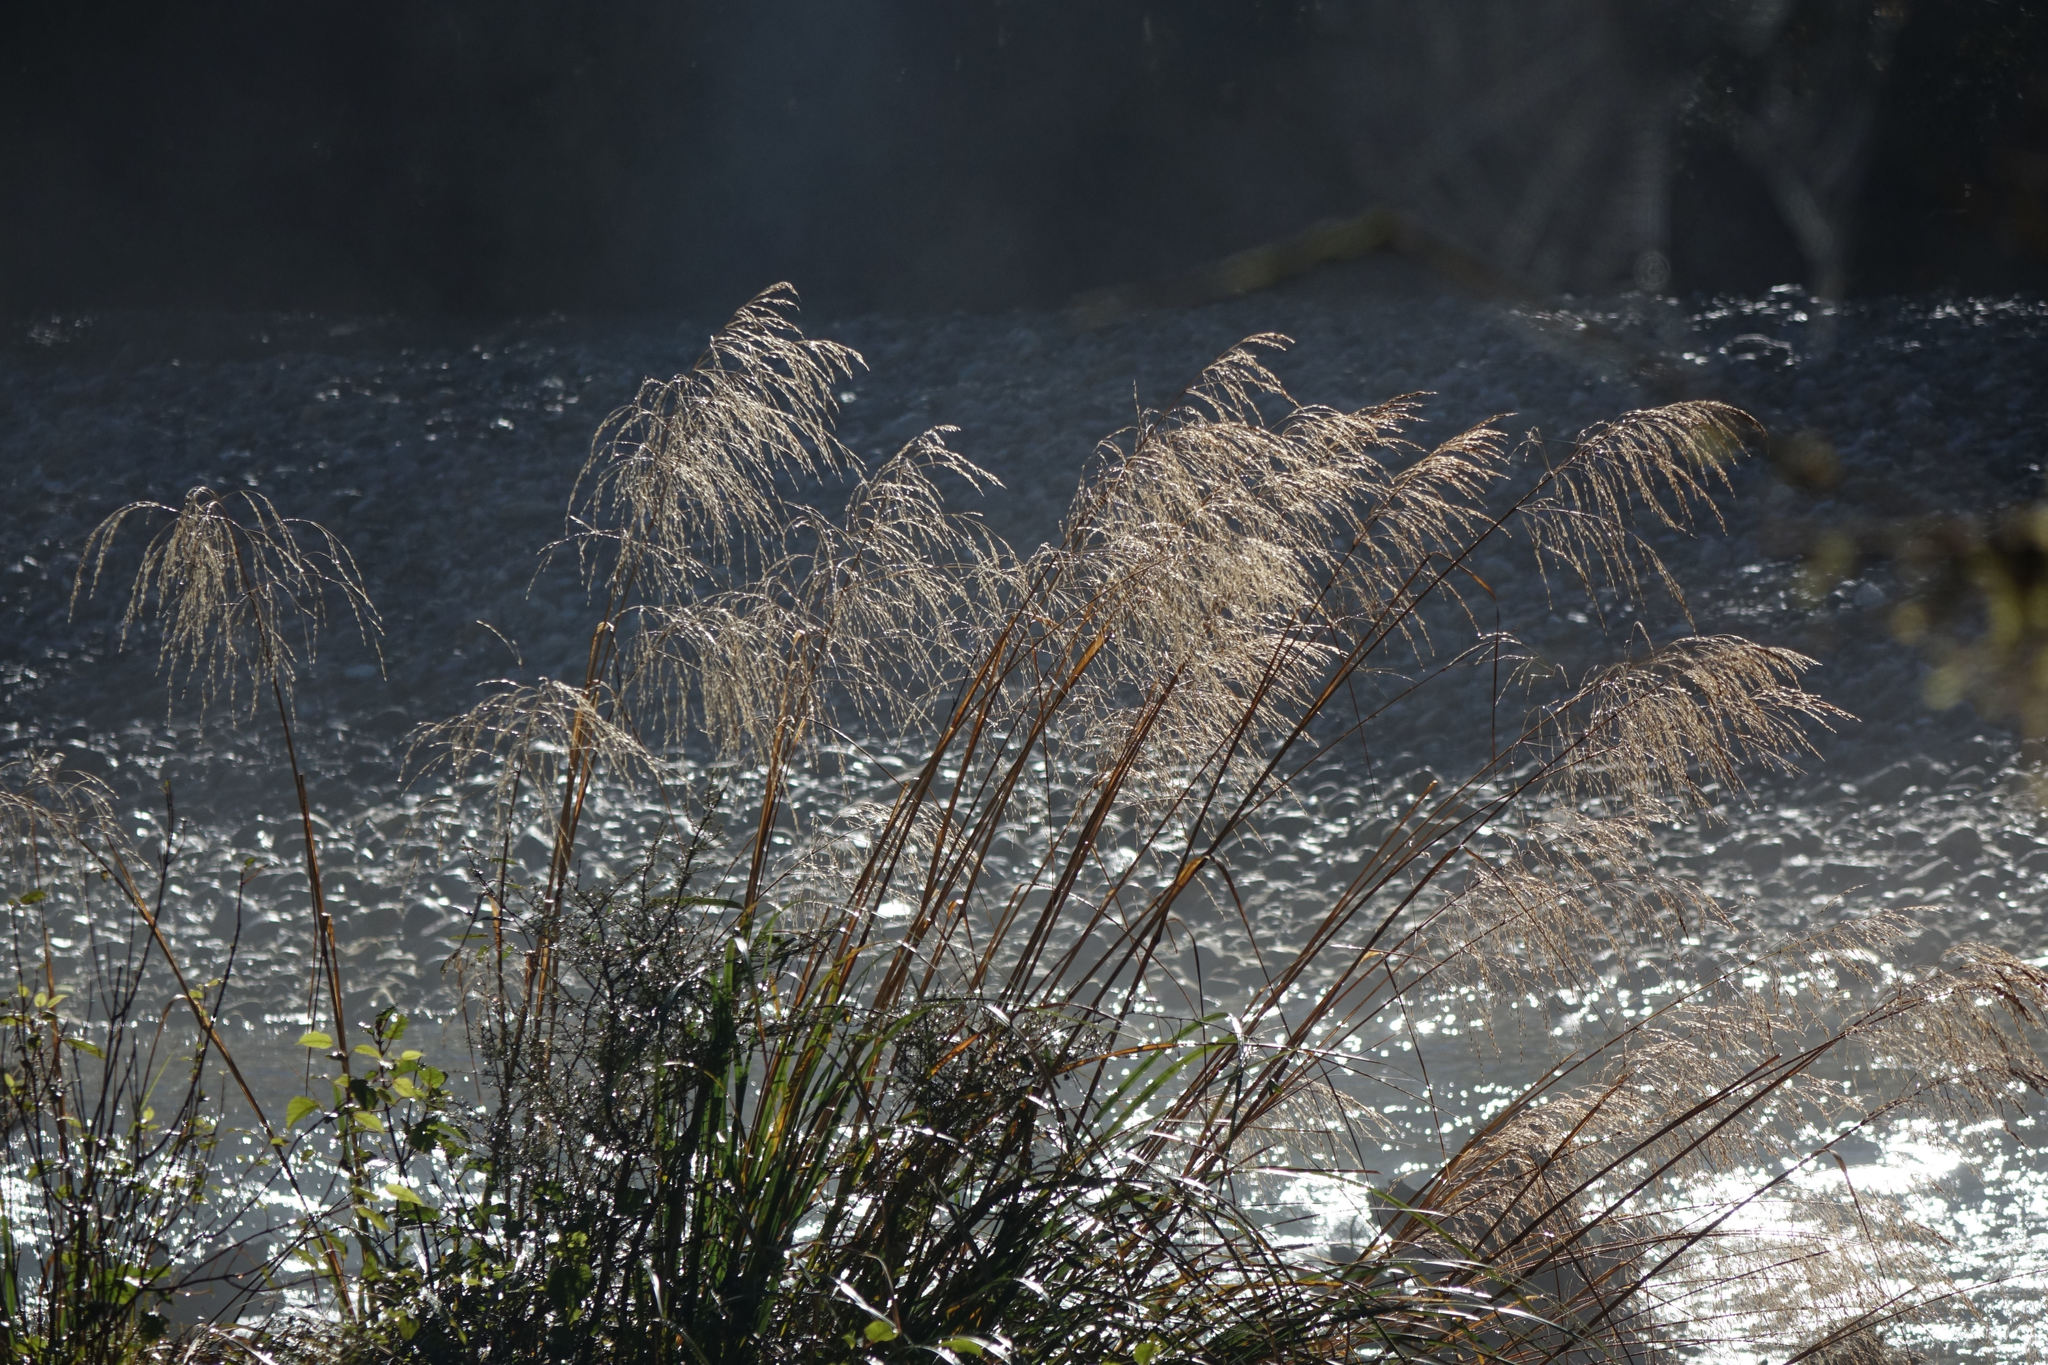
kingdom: Plantae
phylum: Tracheophyta
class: Liliopsida
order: Poales
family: Poaceae
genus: Chionochloa
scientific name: Chionochloa conspicua
